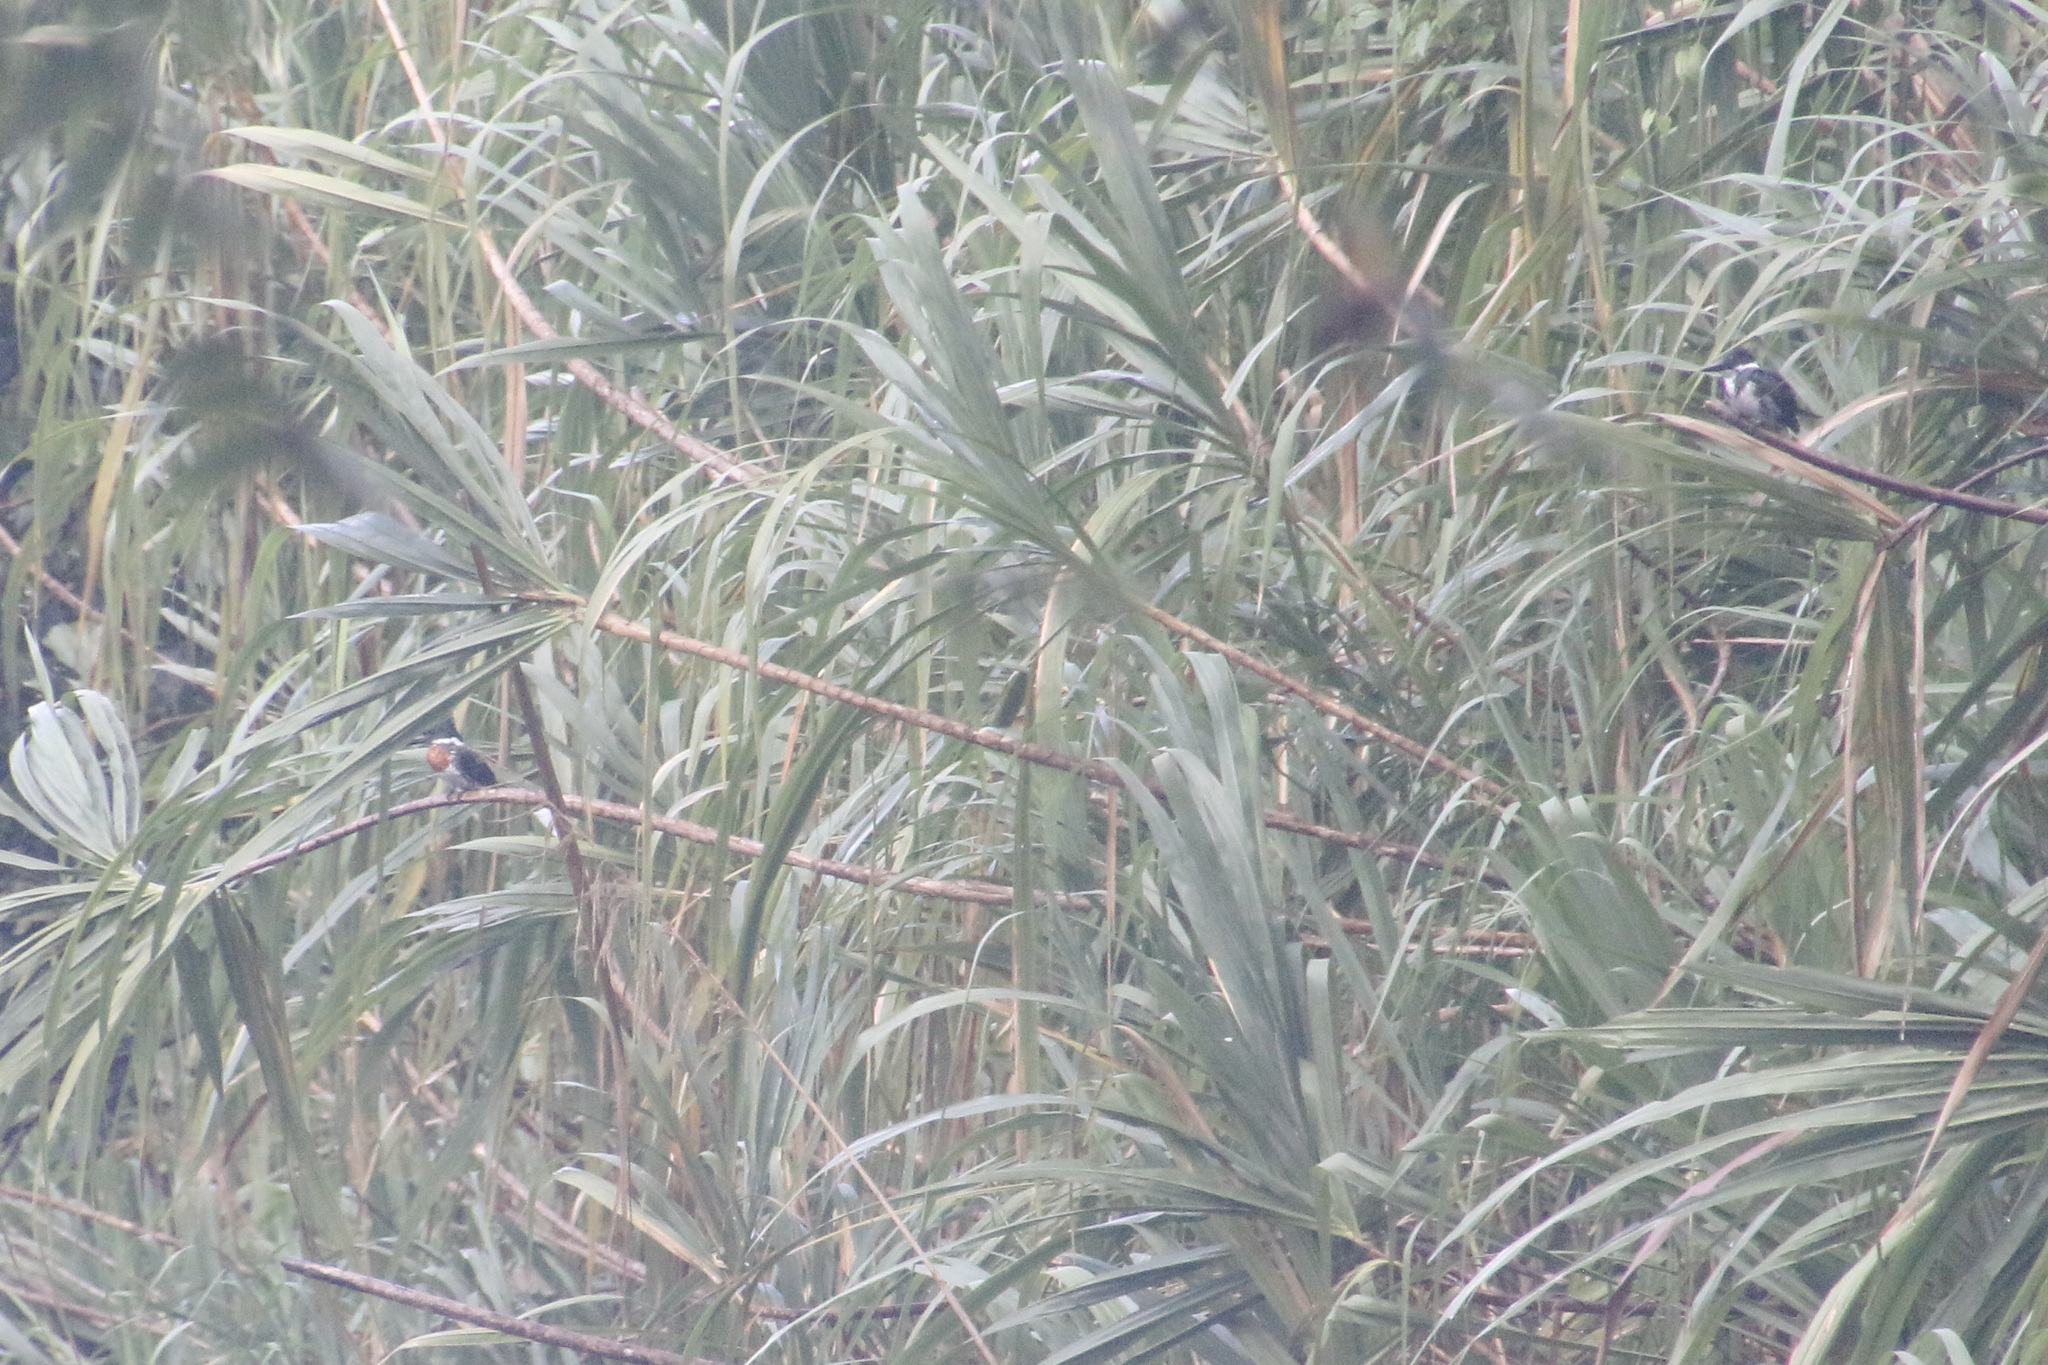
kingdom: Animalia
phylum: Chordata
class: Aves
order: Coraciiformes
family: Alcedinidae
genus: Chloroceryle
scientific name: Chloroceryle amazona
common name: Amazon kingfisher
